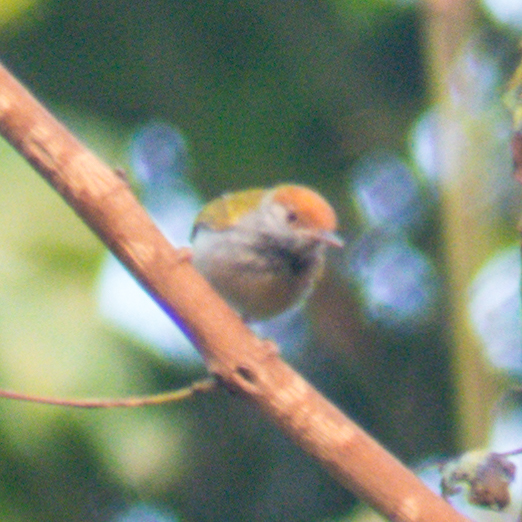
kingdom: Animalia
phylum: Chordata
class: Aves
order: Passeriformes
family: Cisticolidae
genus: Orthotomus
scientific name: Orthotomus atrogularis
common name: Dark-necked tailorbird
